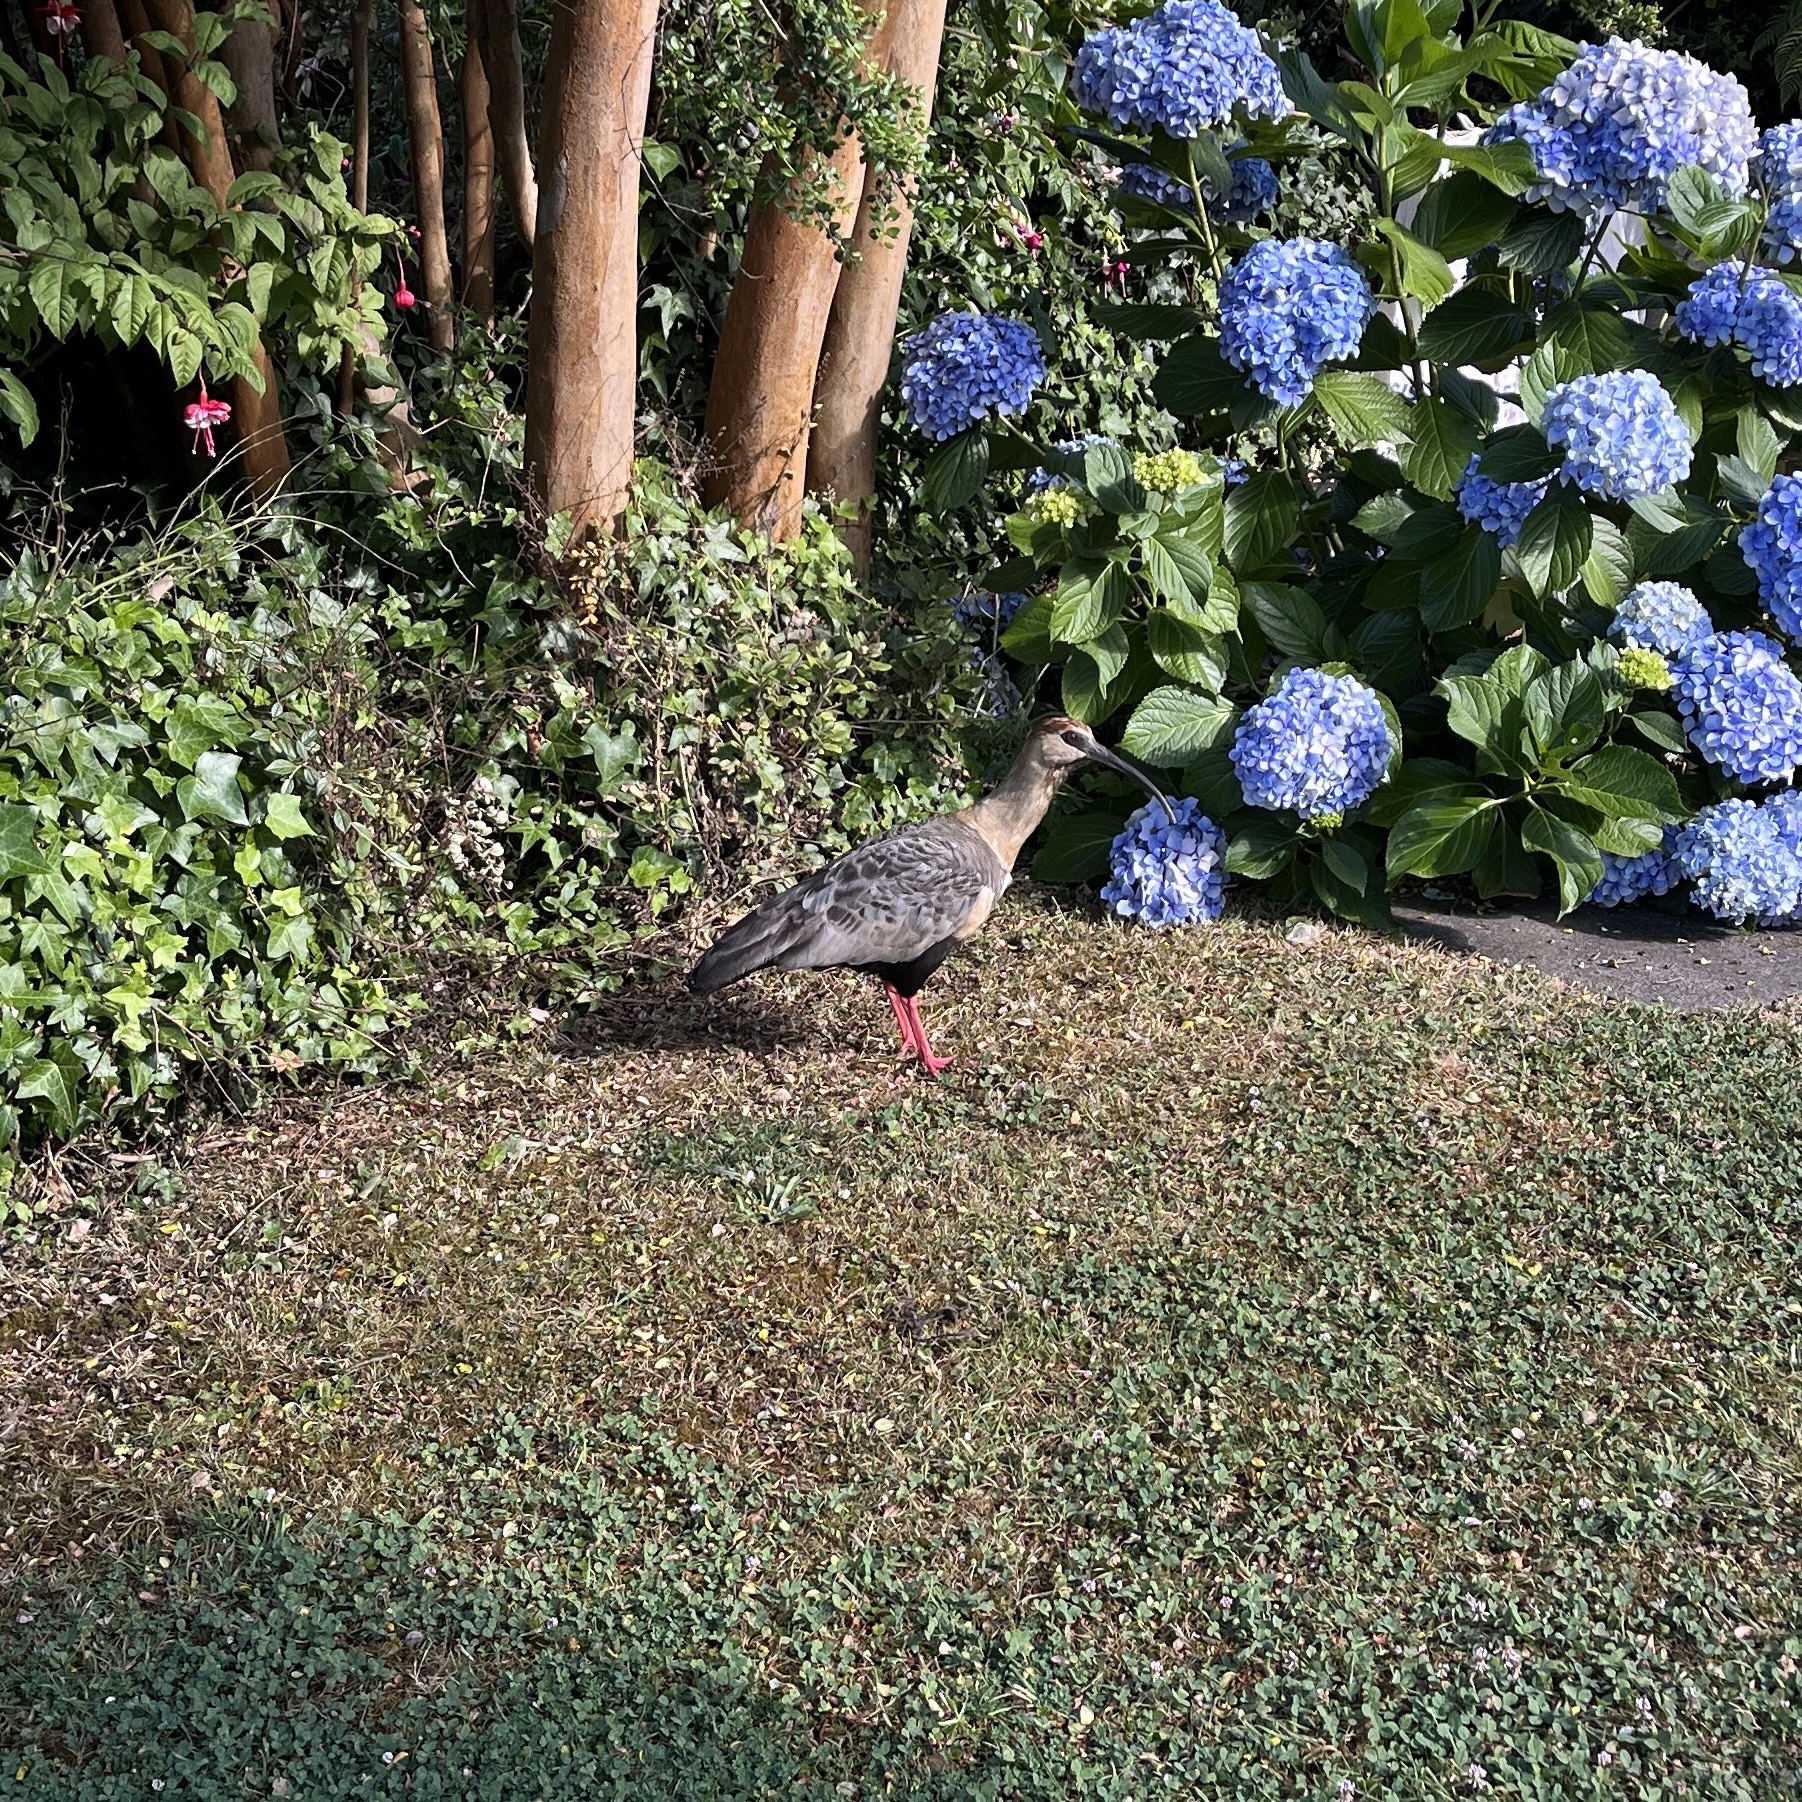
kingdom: Animalia
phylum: Chordata
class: Aves
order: Pelecaniformes
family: Threskiornithidae
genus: Theristicus
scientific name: Theristicus melanopis
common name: Black-faced ibis
